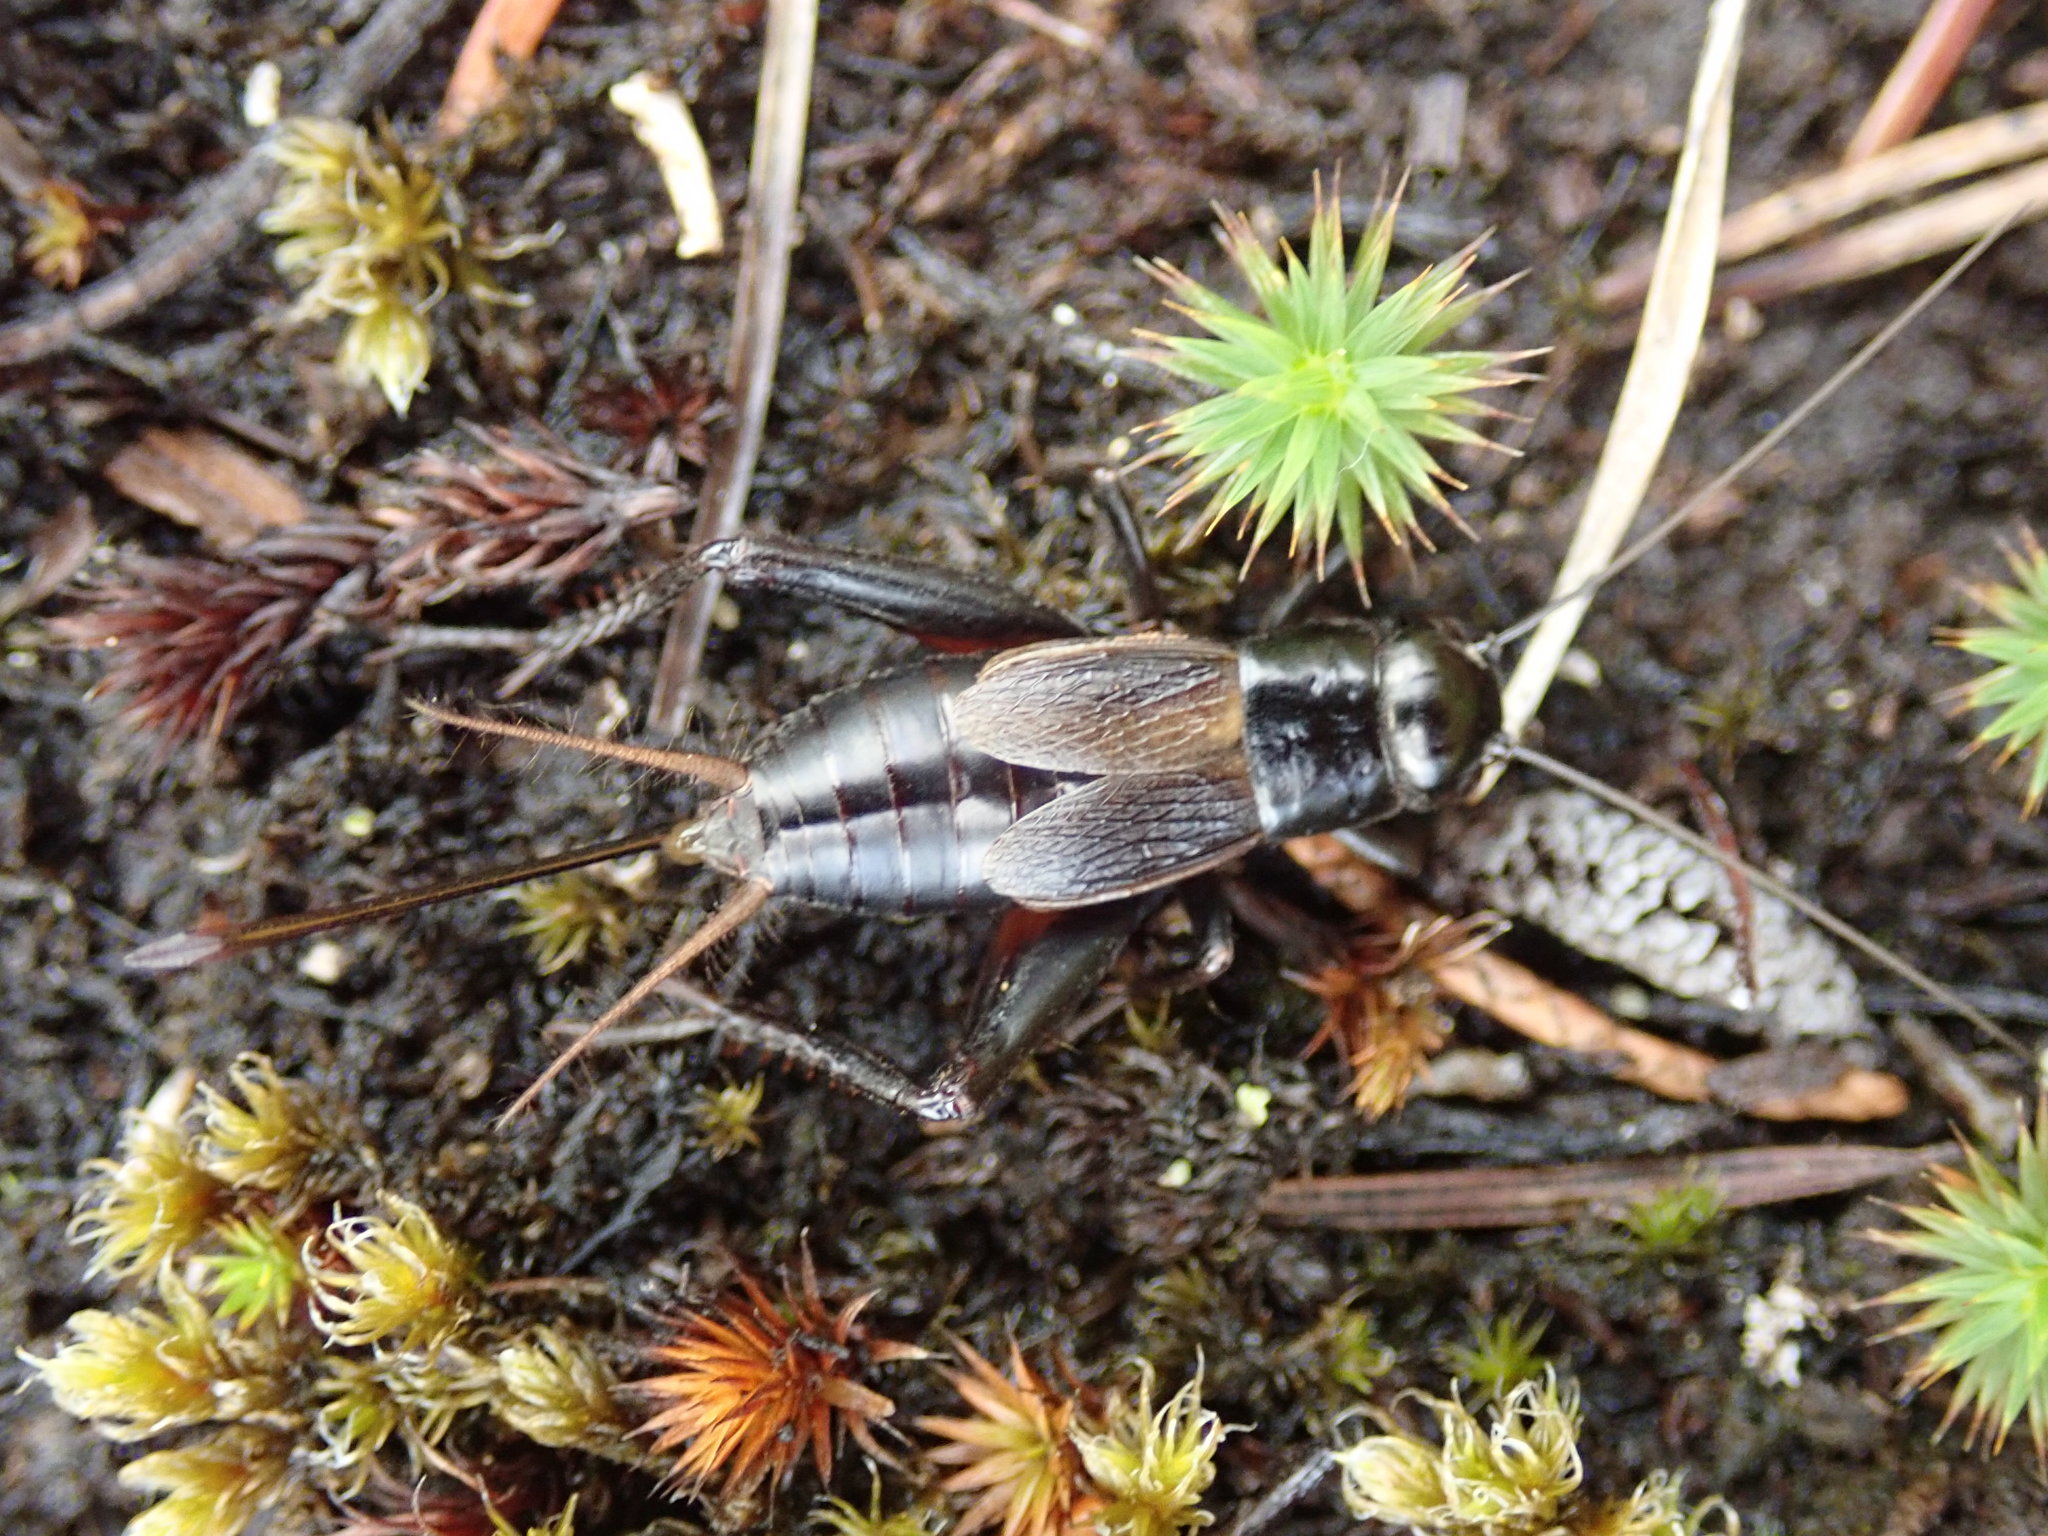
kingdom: Animalia
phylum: Arthropoda
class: Insecta
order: Orthoptera
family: Gryllidae
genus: Gryllus
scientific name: Gryllus pennsylvanicus
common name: Fall field cricket
